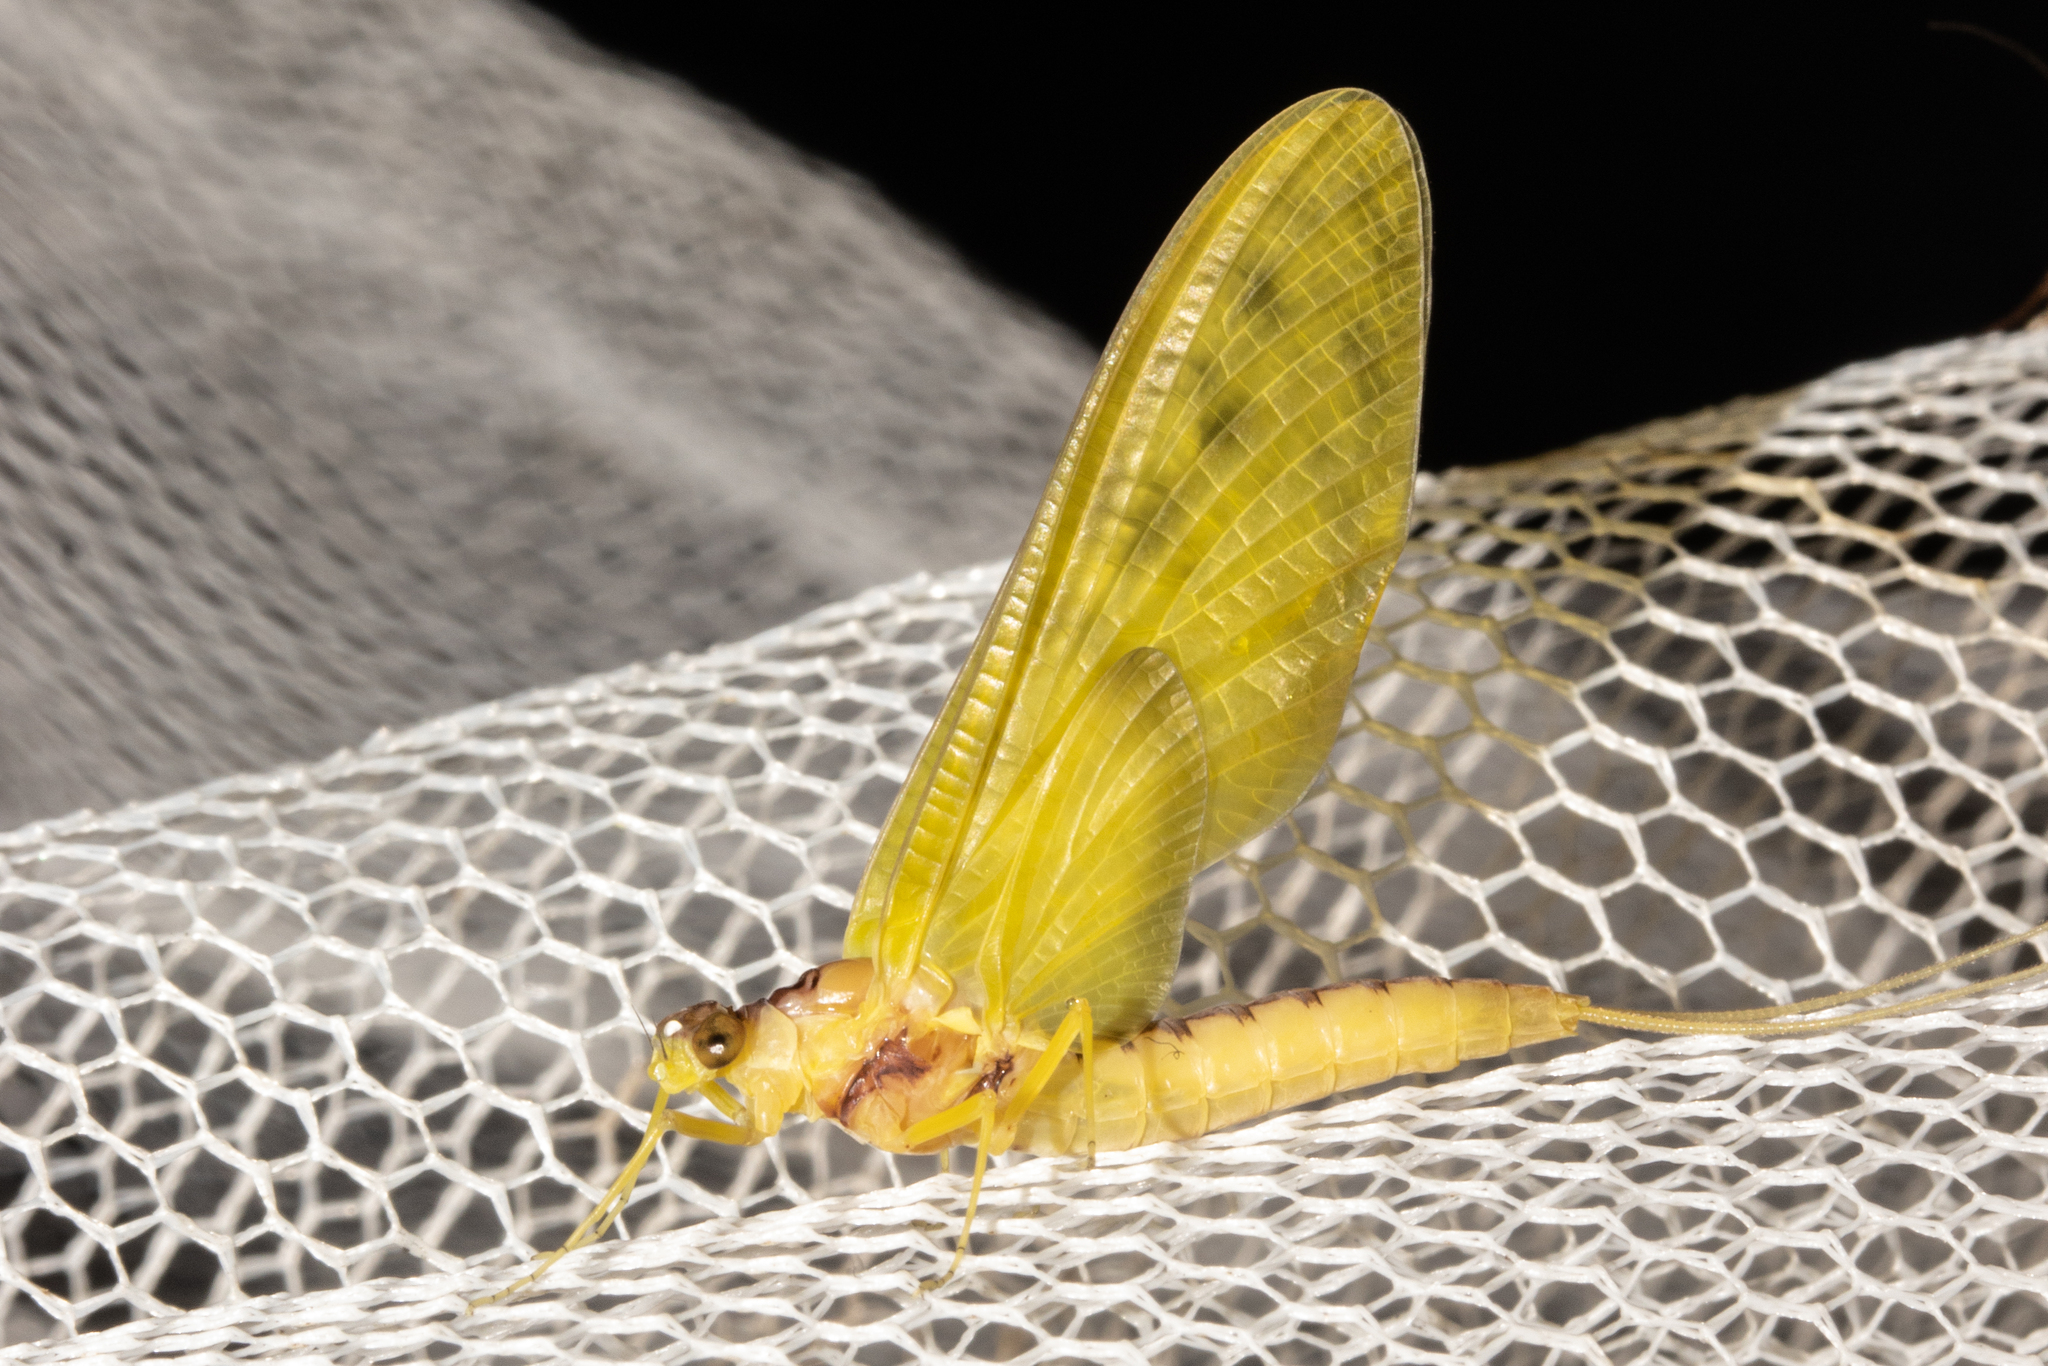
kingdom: Animalia
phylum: Arthropoda
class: Insecta
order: Ephemeroptera
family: Ameletopsidae
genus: Ameletopsis
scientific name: Ameletopsis perscitus
